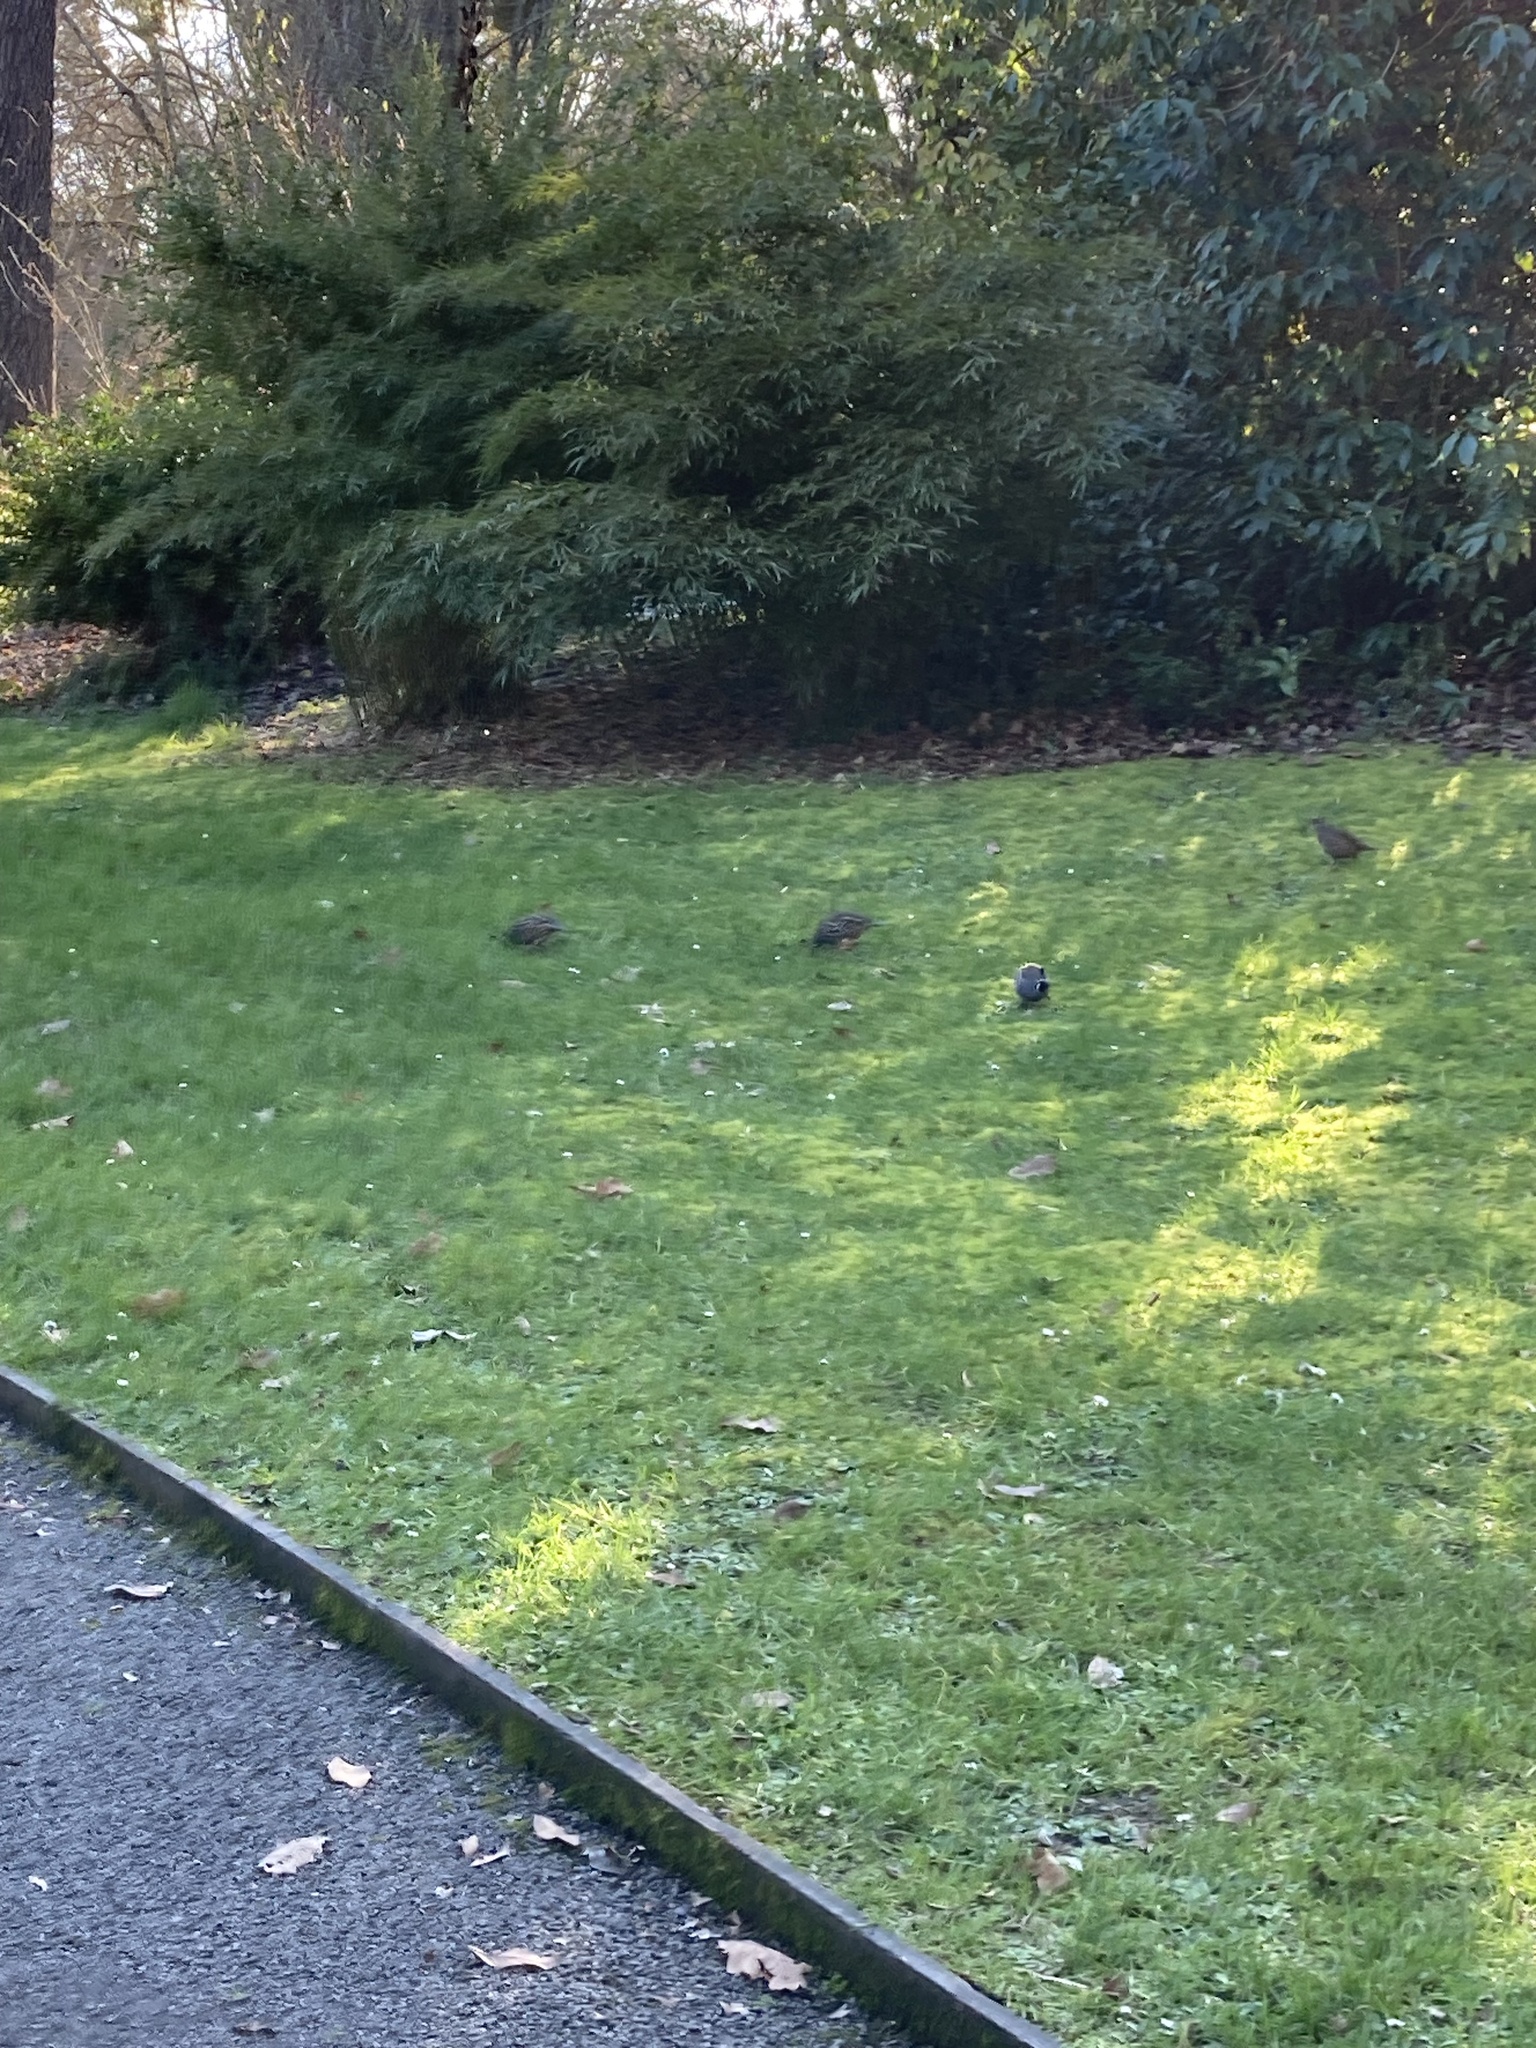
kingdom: Animalia
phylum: Chordata
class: Aves
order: Galliformes
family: Odontophoridae
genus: Callipepla
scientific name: Callipepla californica
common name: California quail
